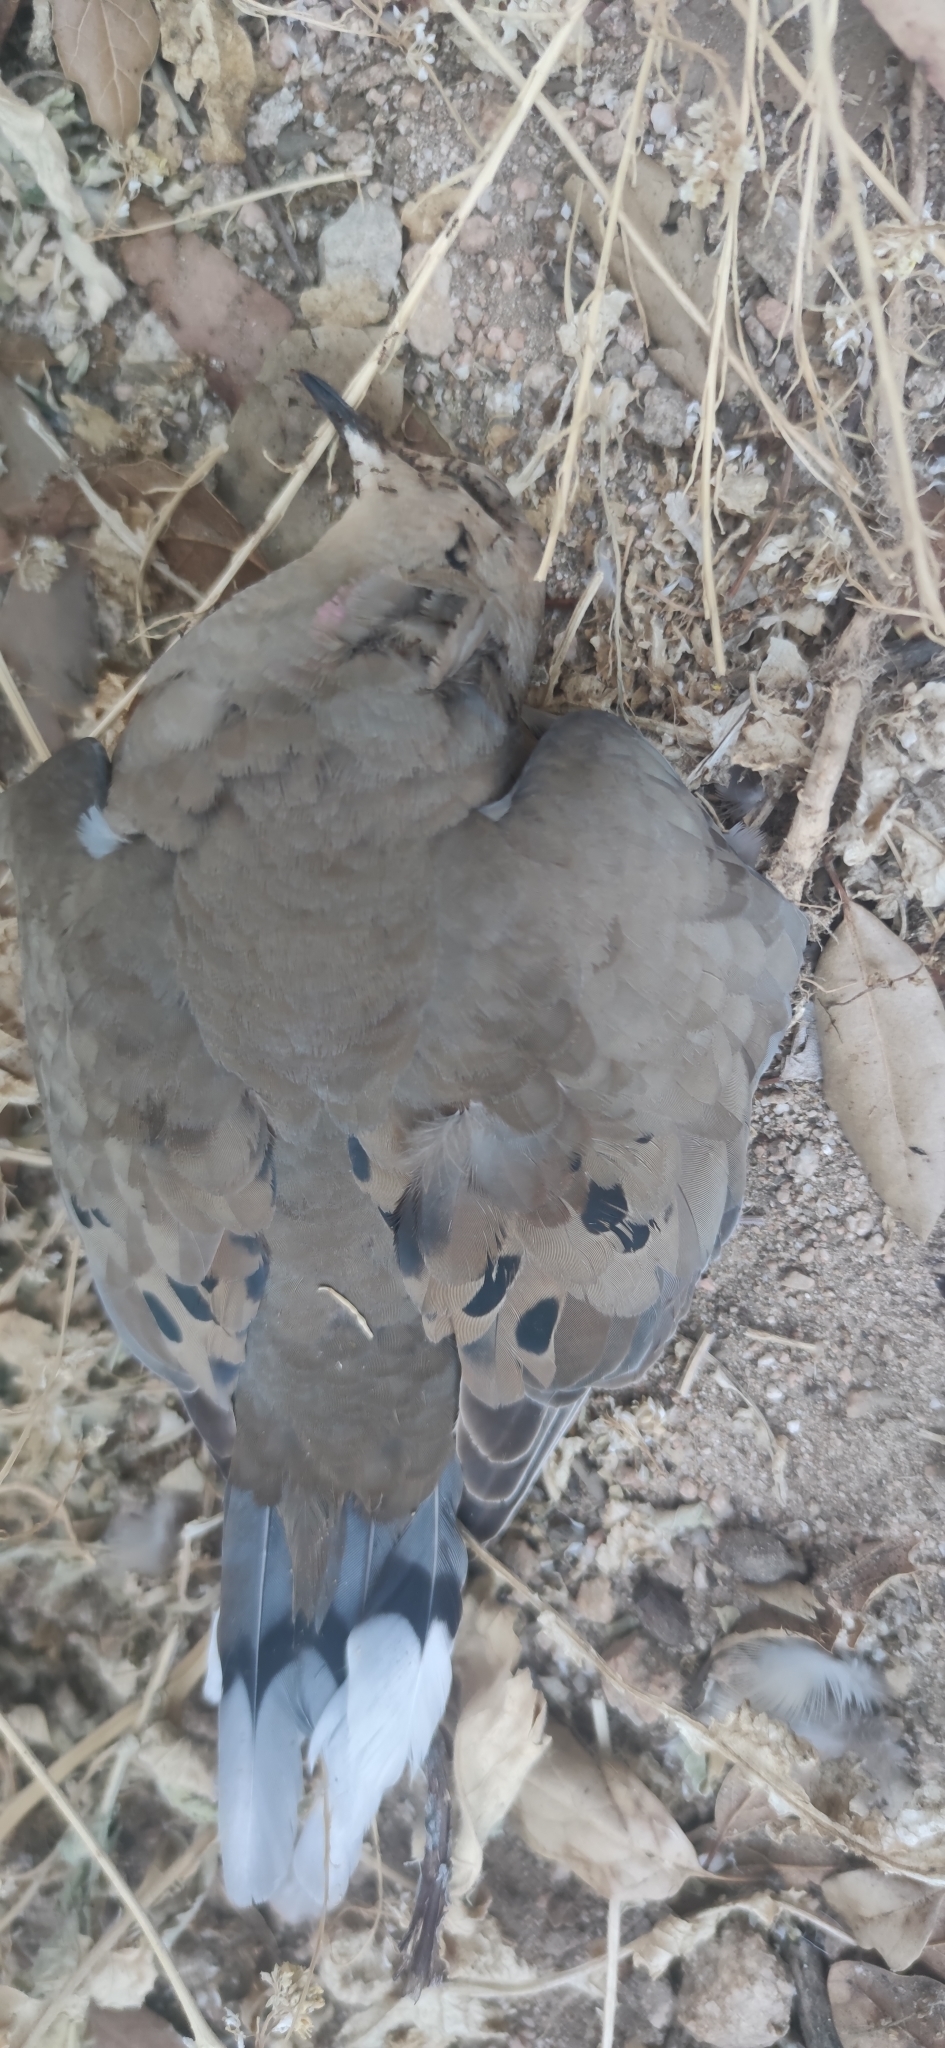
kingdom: Animalia
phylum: Chordata
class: Aves
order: Columbiformes
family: Columbidae
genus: Zenaida
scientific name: Zenaida macroura
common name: Mourning dove
